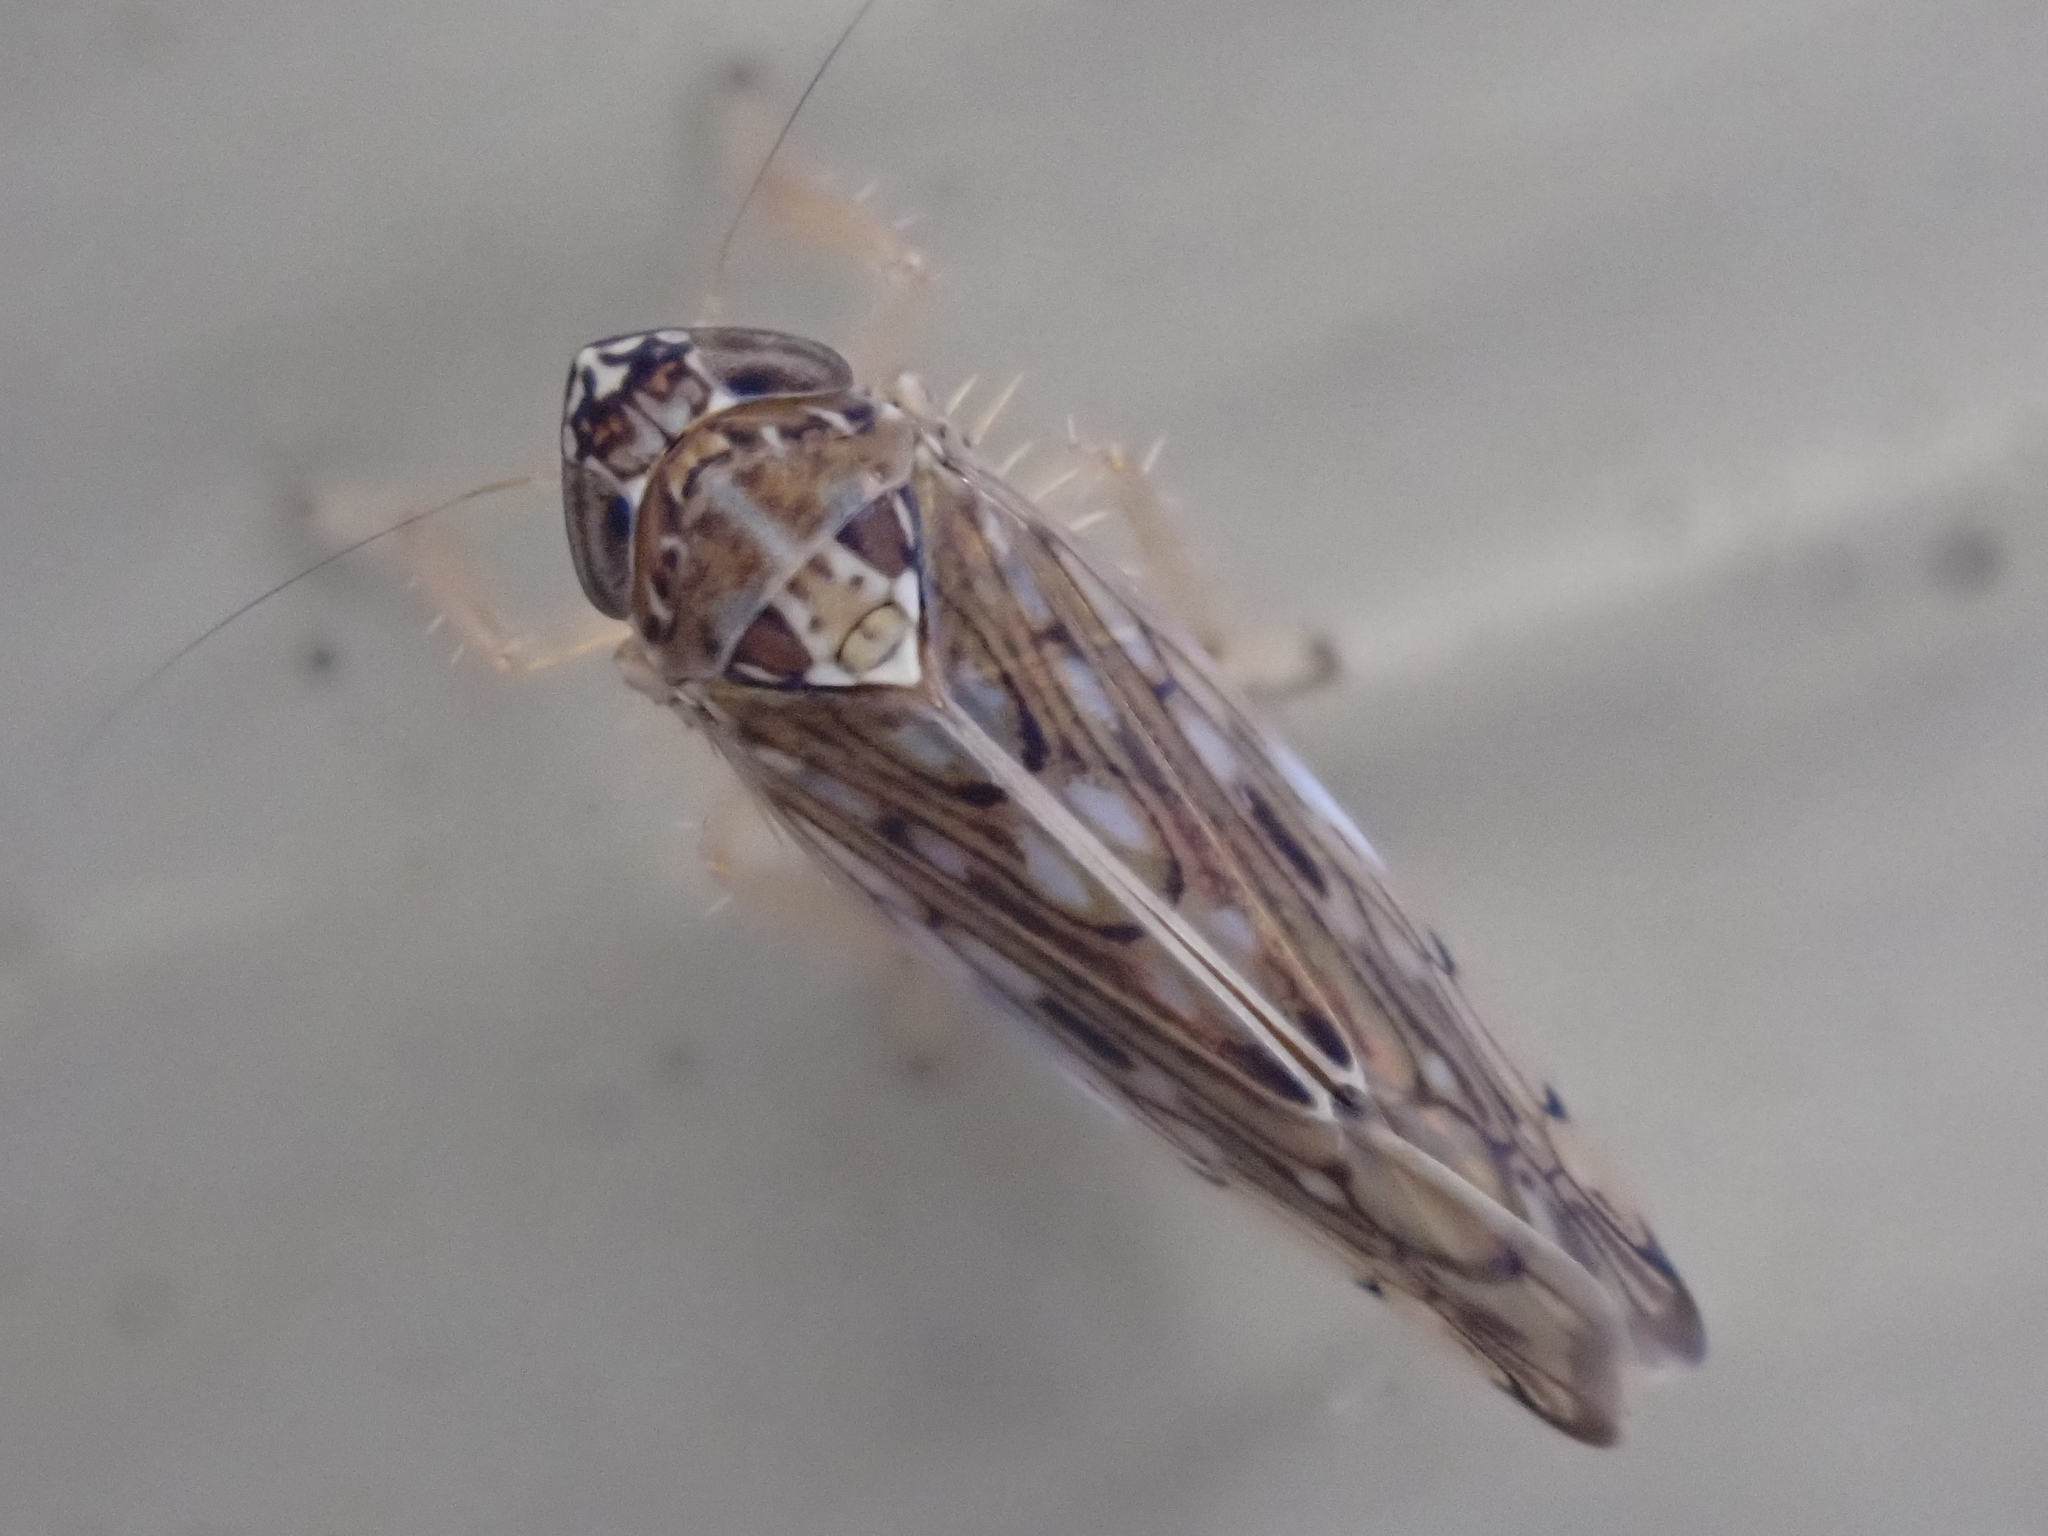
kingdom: Animalia
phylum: Arthropoda
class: Insecta
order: Hemiptera
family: Cicadellidae
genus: Osbornellus
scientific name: Osbornellus clarus
